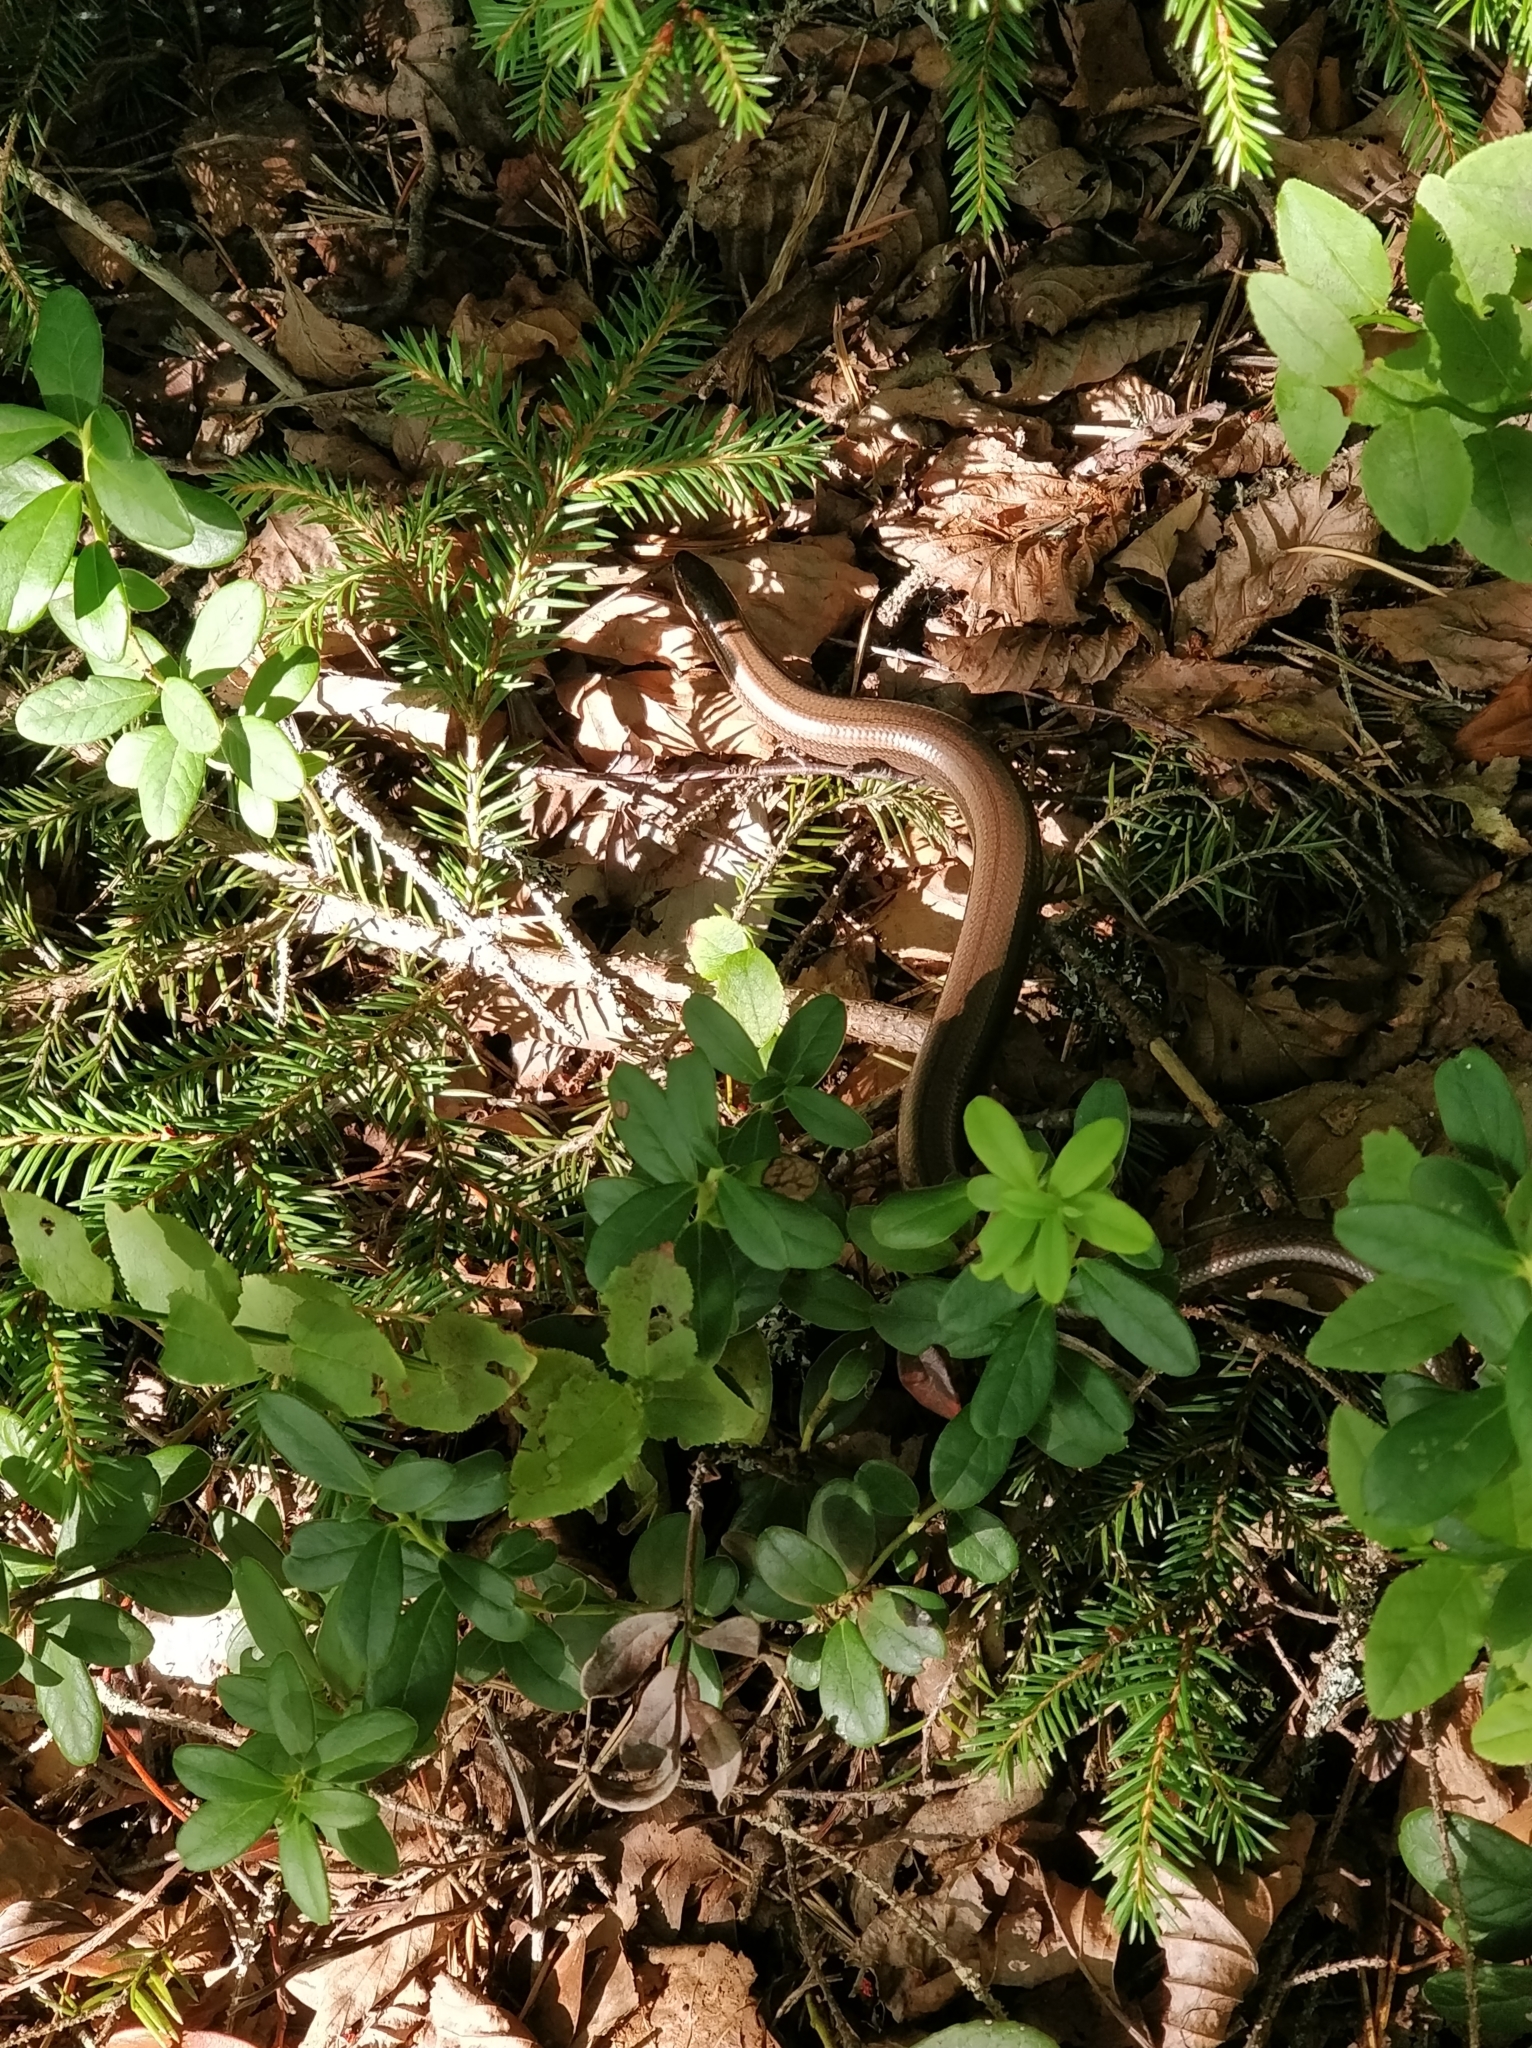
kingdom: Animalia
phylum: Chordata
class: Squamata
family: Anguidae
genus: Anguis
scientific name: Anguis colchica
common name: Slow worm
